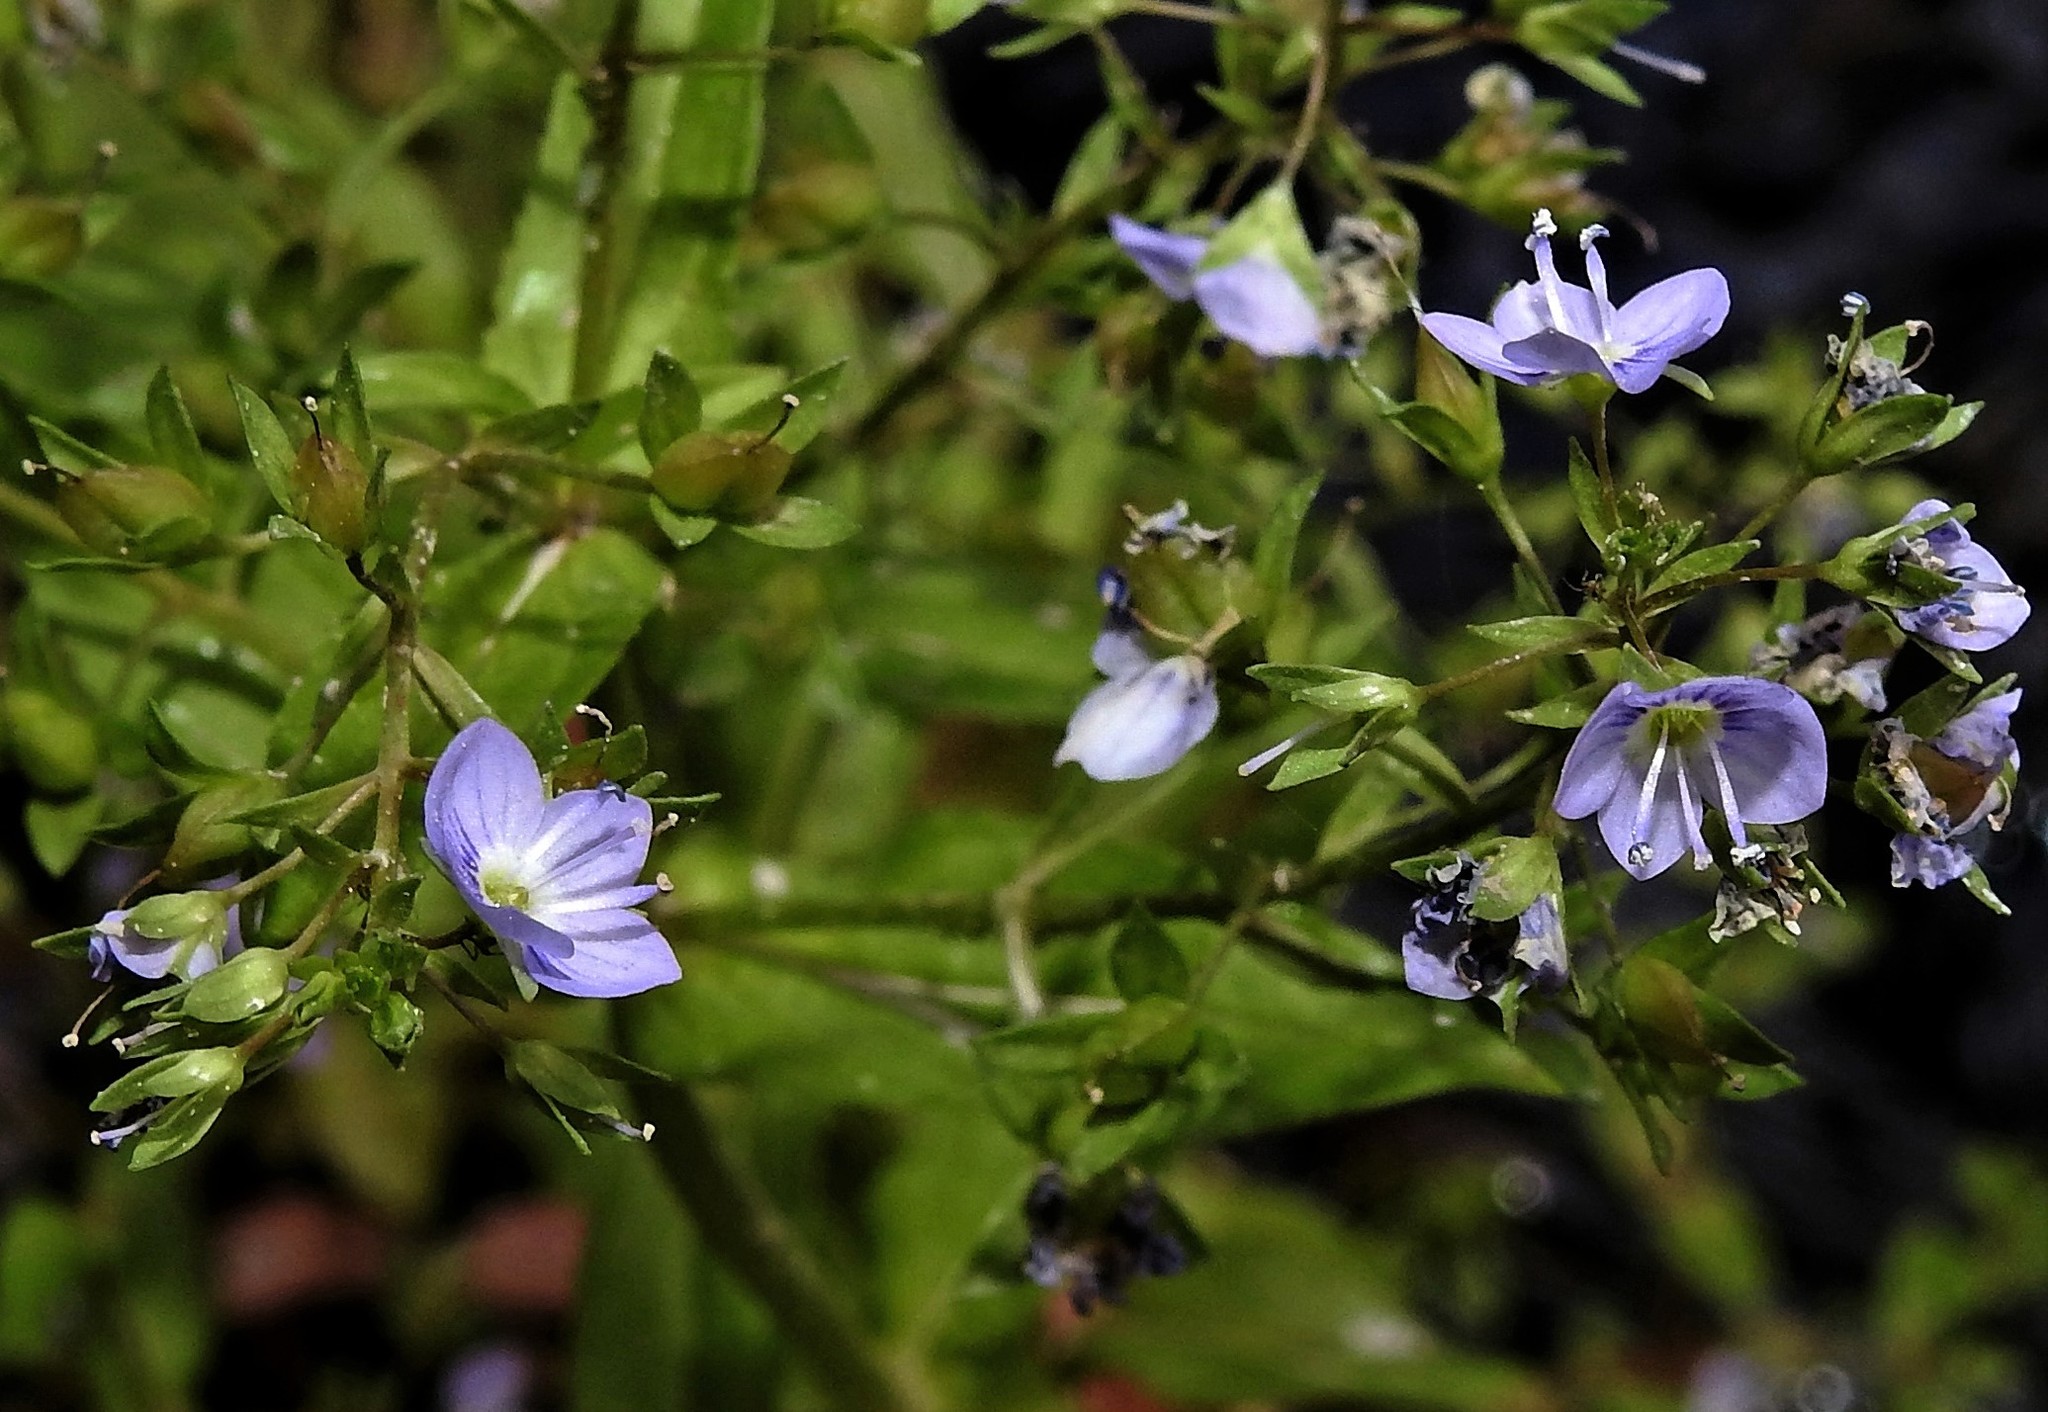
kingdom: Plantae
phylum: Tracheophyta
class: Magnoliopsida
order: Lamiales
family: Plantaginaceae
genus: Veronica
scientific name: Veronica anagallis-aquatica
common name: Water speedwell
